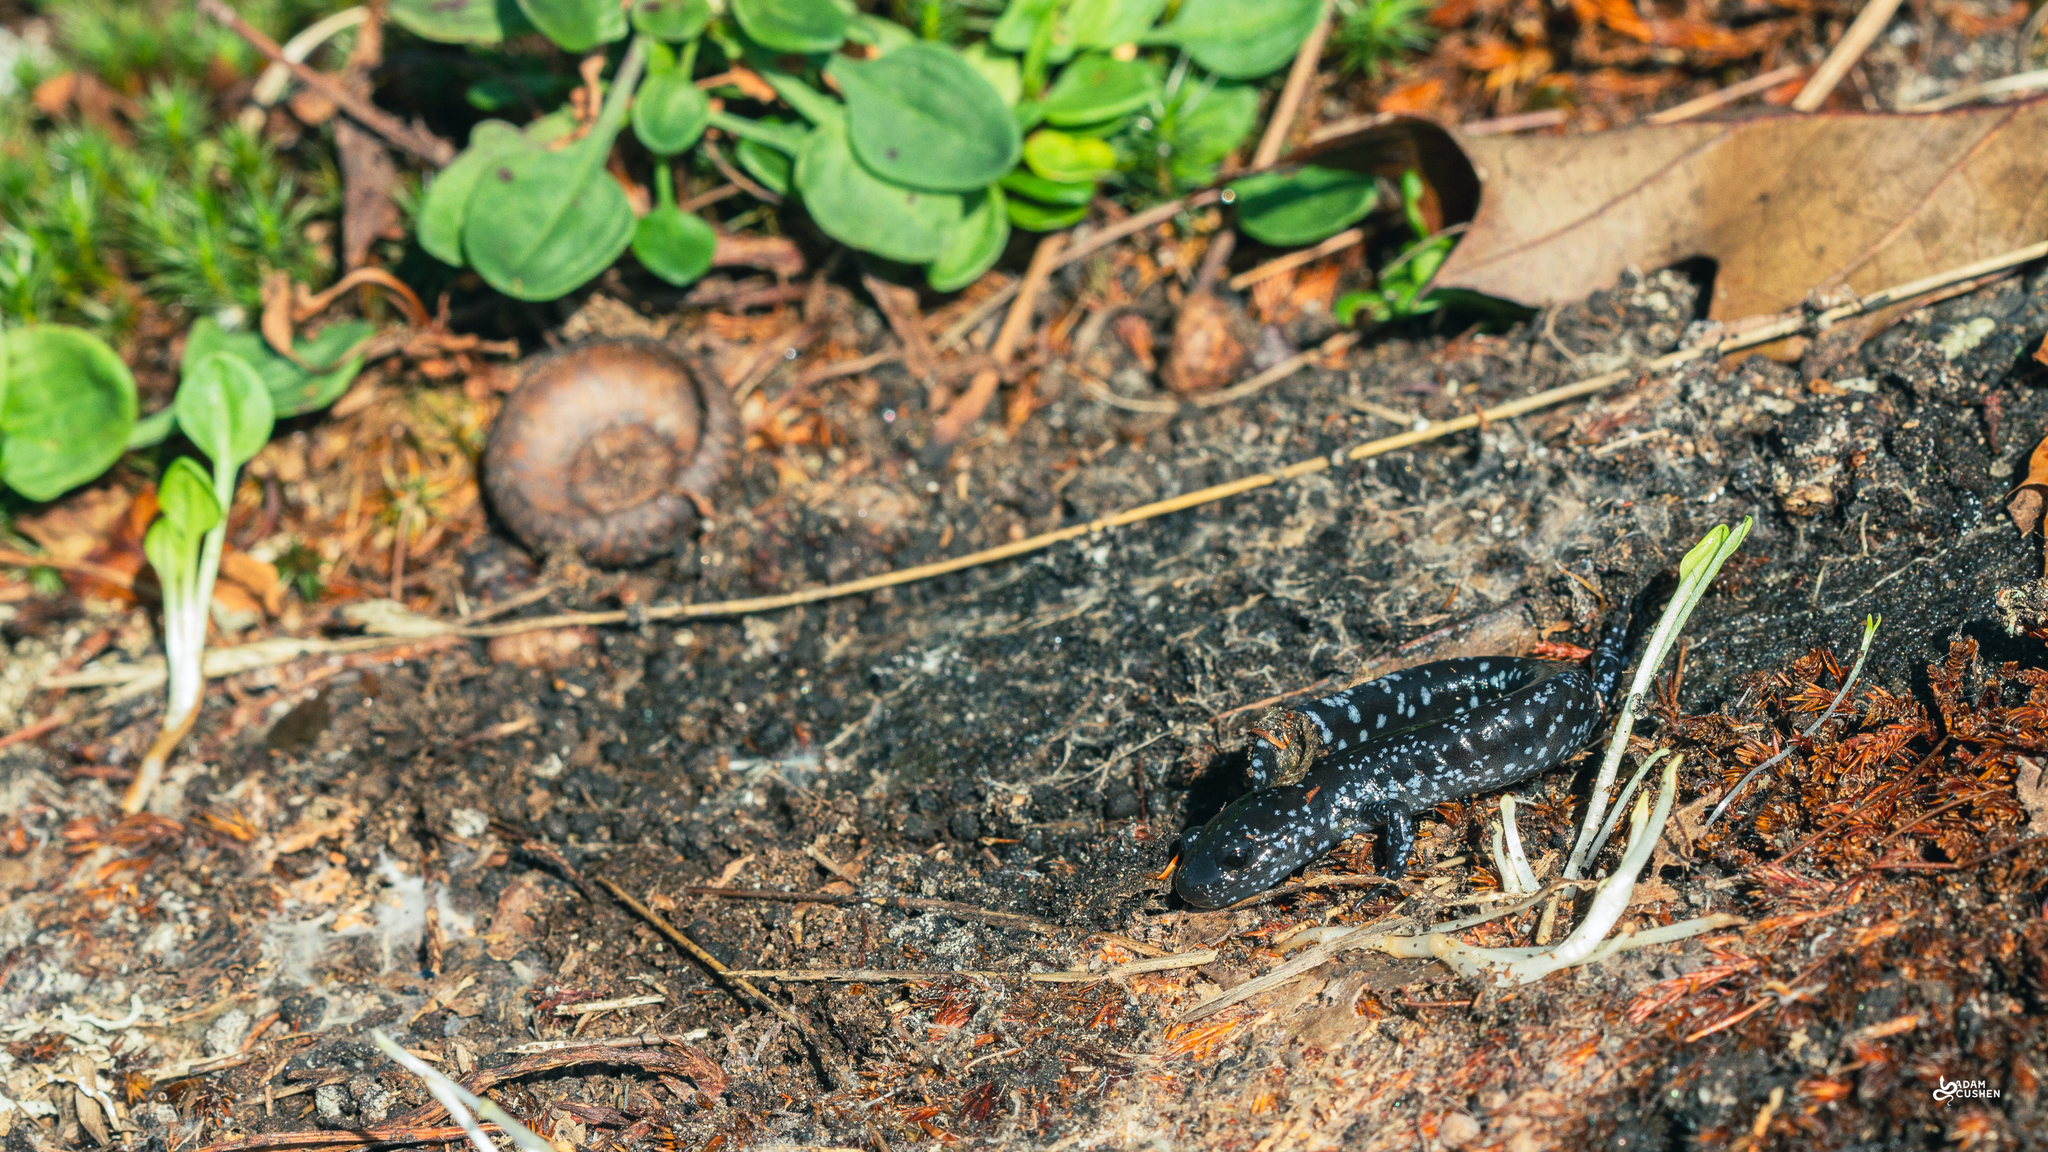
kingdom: Animalia
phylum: Chordata
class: Amphibia
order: Caudata
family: Ambystomatidae
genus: Ambystoma
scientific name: Ambystoma laterale
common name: Blue-spotted salamander
